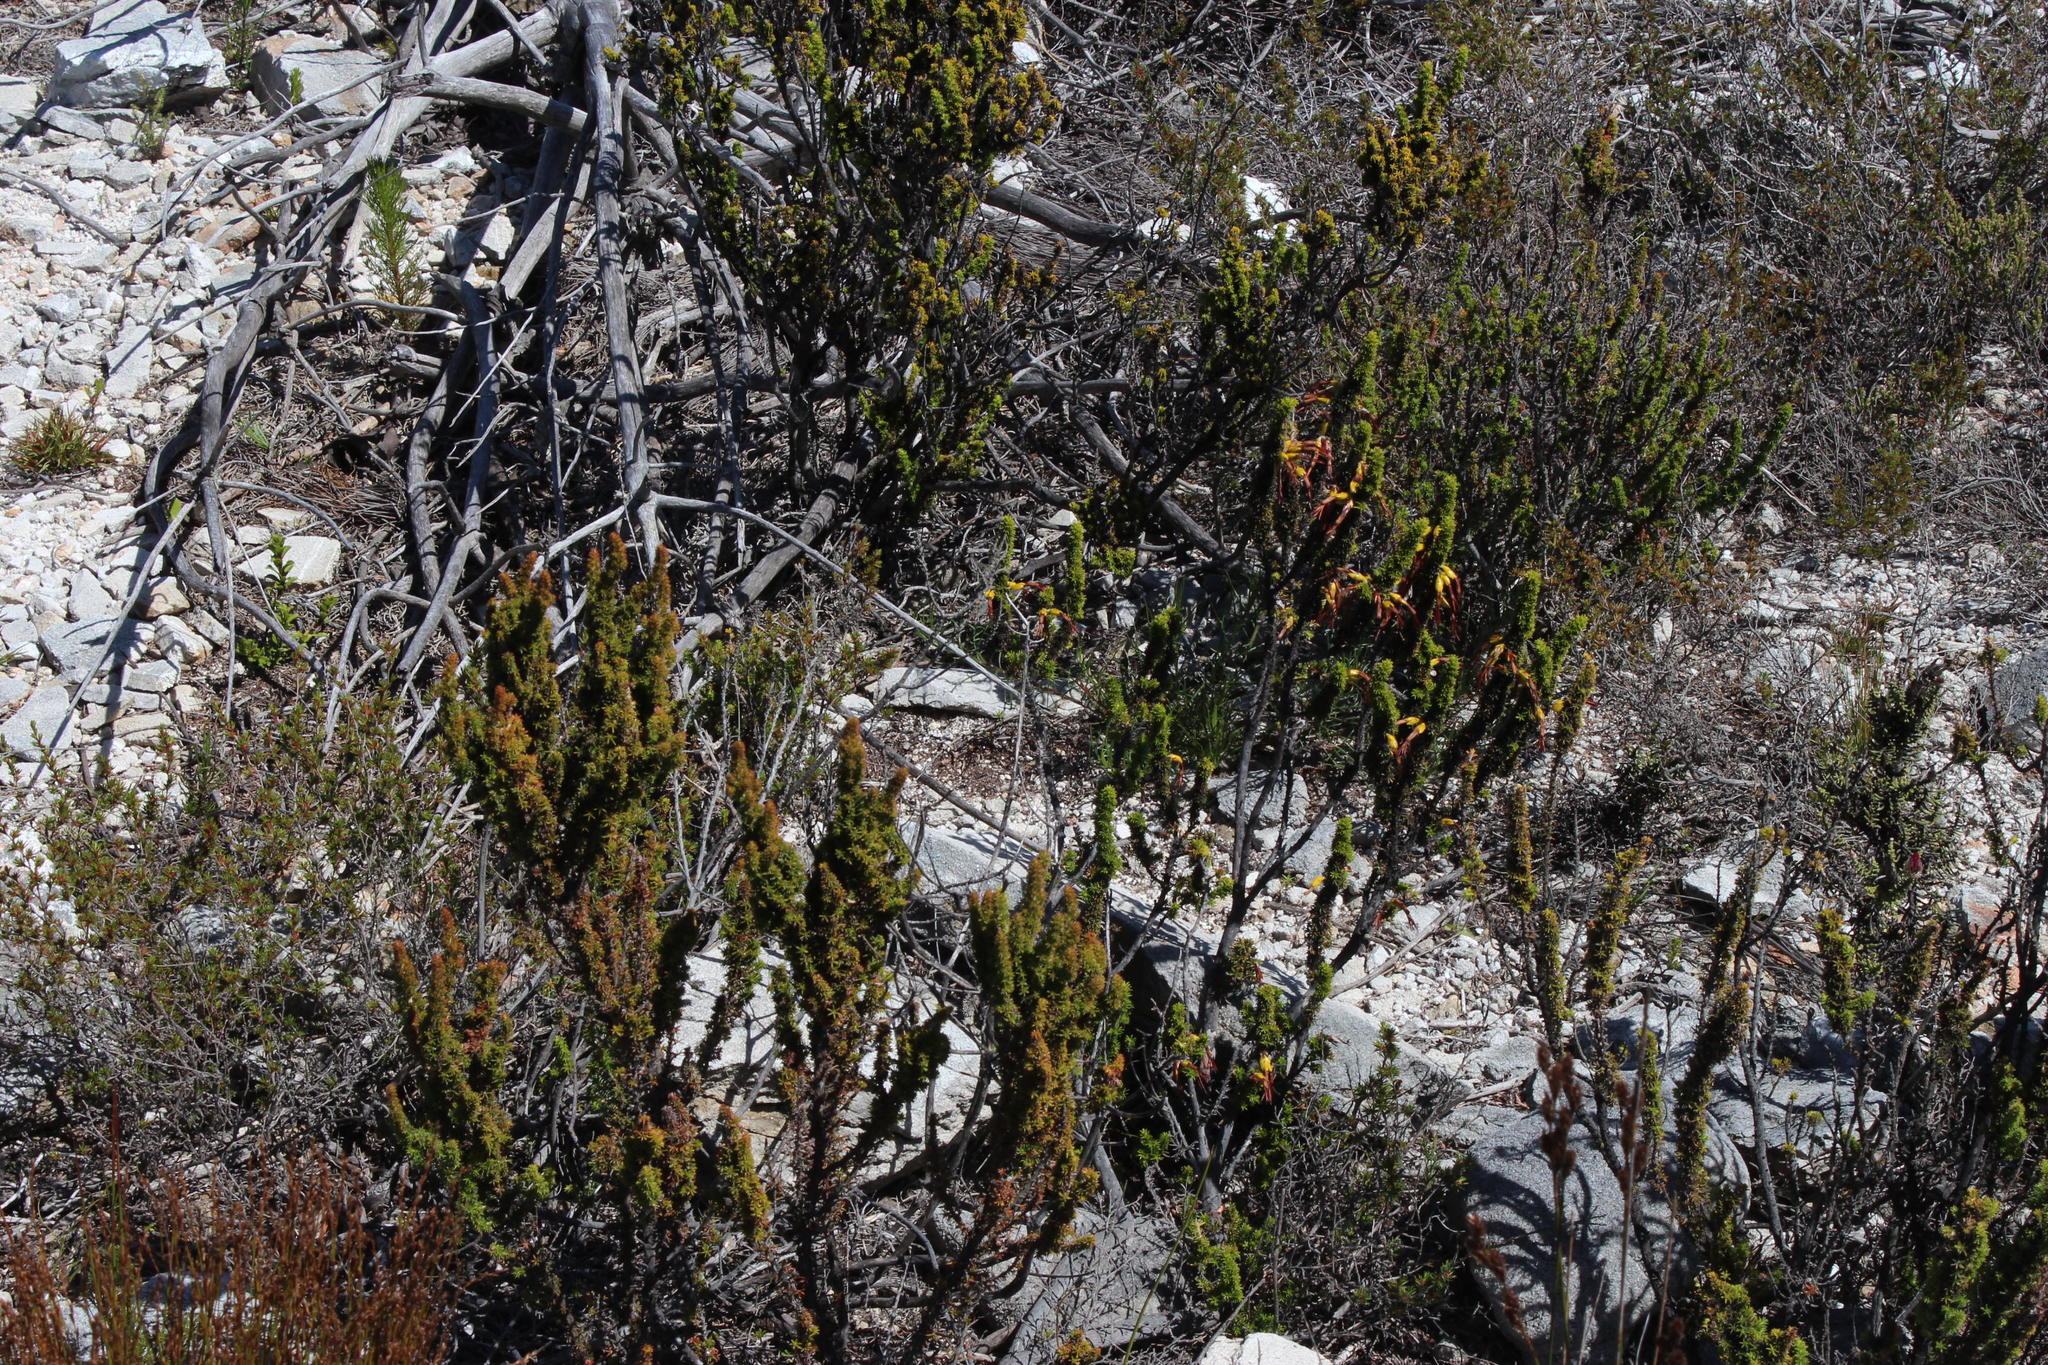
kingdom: Plantae
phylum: Tracheophyta
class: Magnoliopsida
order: Ericales
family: Ericaceae
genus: Erica
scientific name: Erica coccinea
